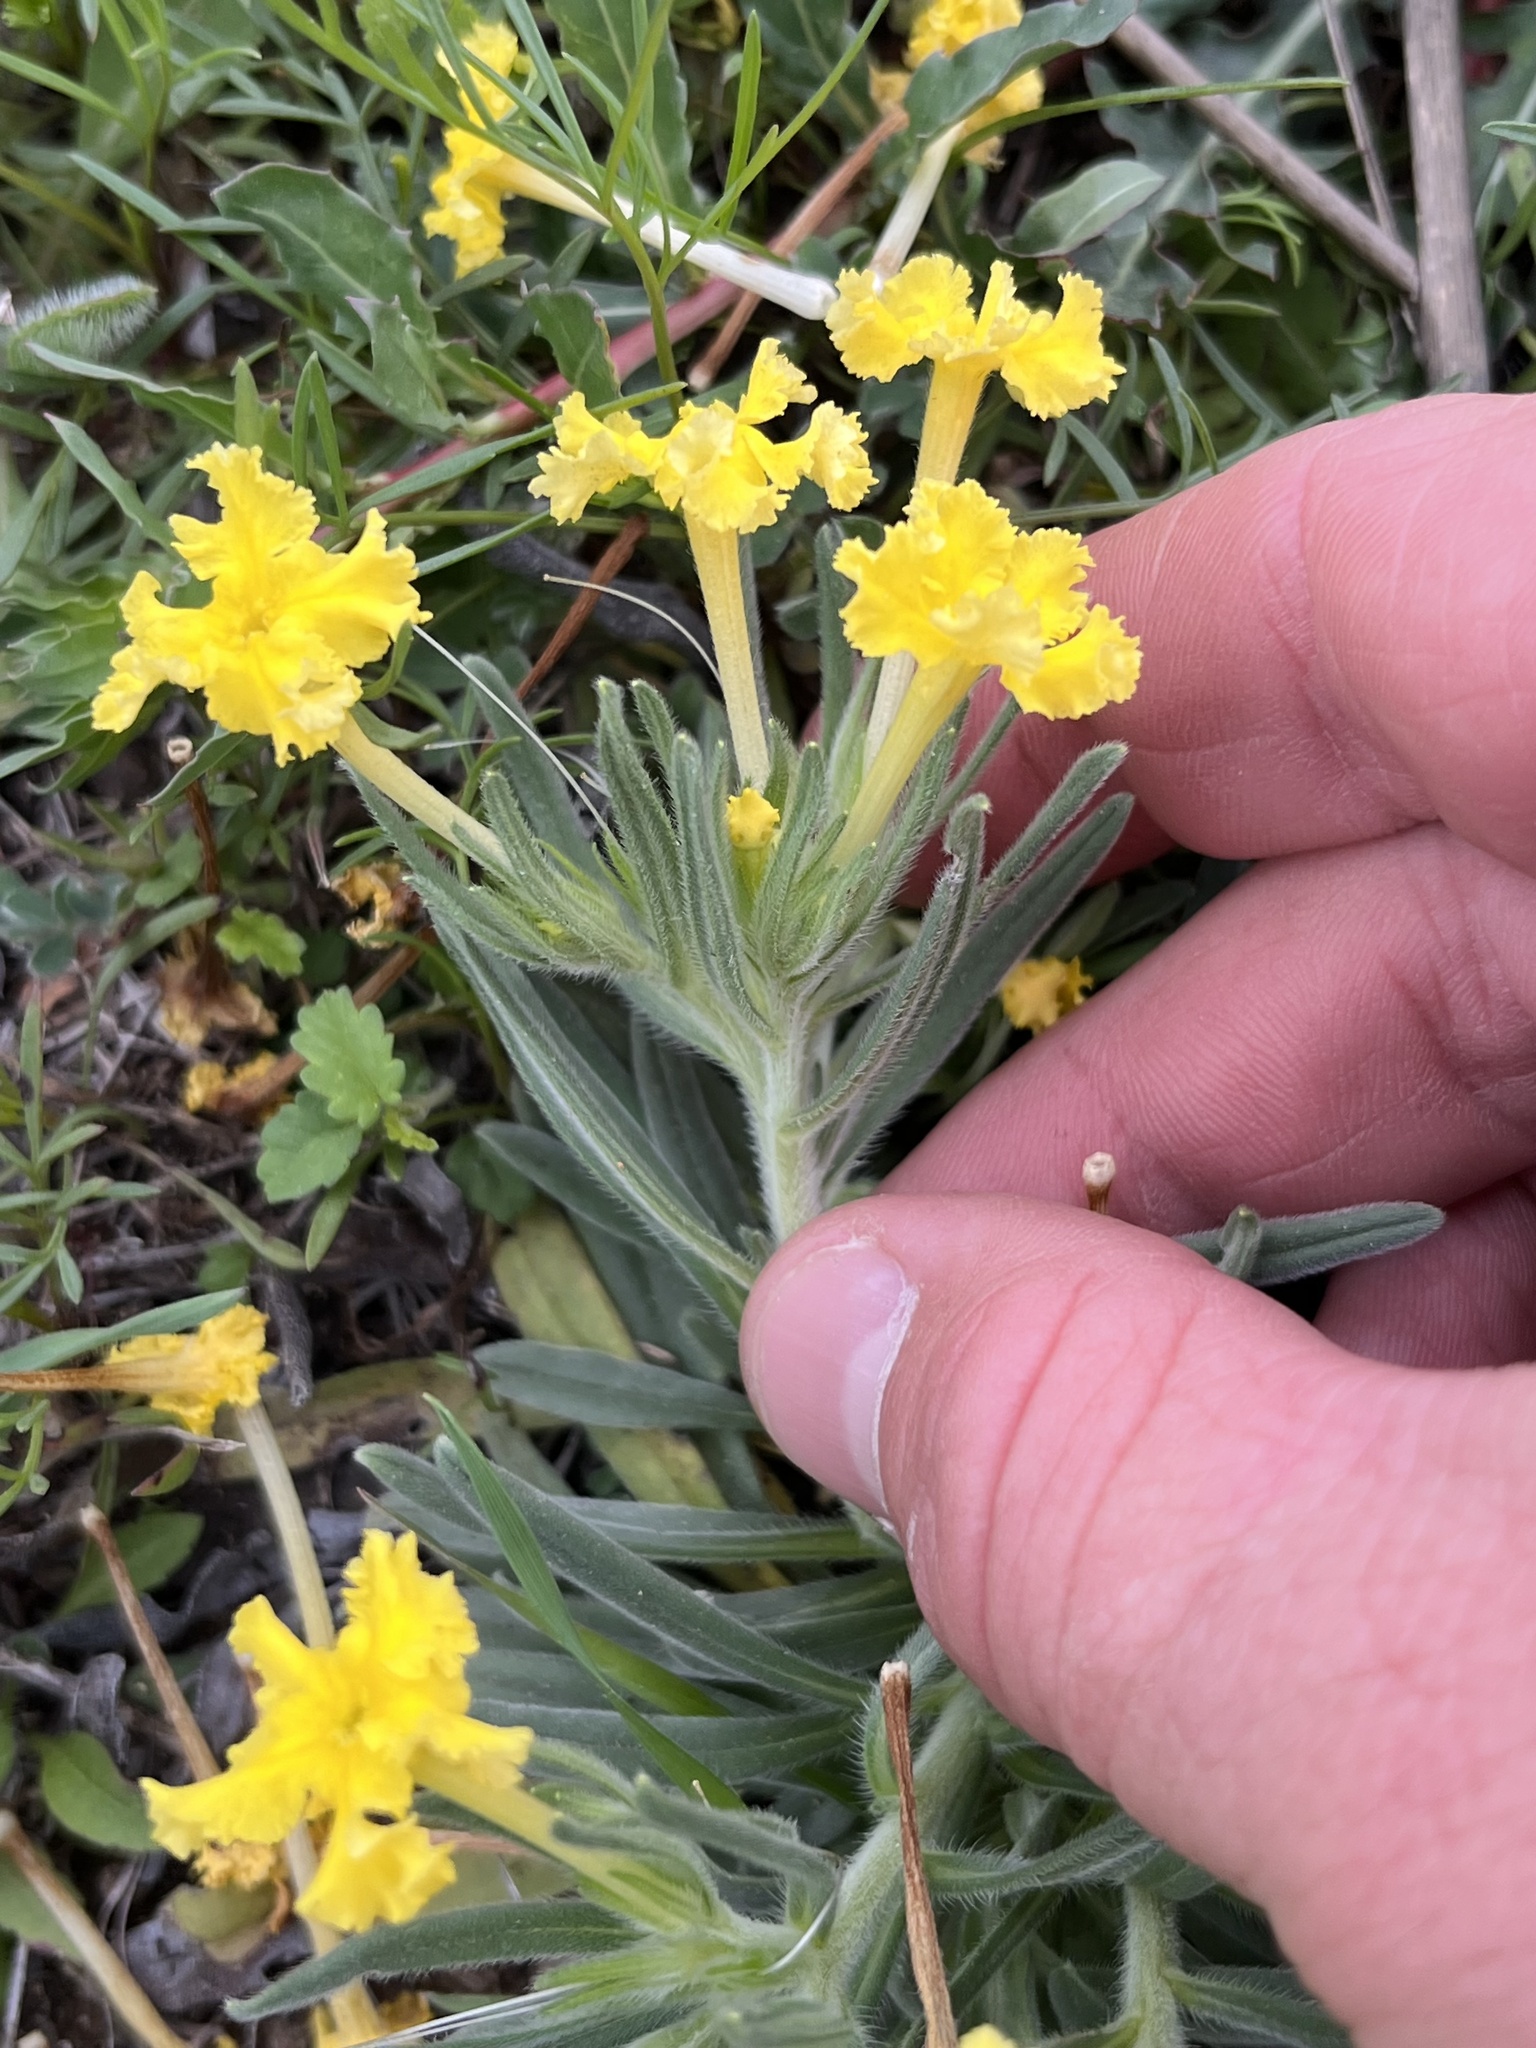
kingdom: Plantae
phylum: Tracheophyta
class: Magnoliopsida
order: Boraginales
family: Boraginaceae
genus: Lithospermum
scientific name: Lithospermum incisum
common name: Fringed gromwell
